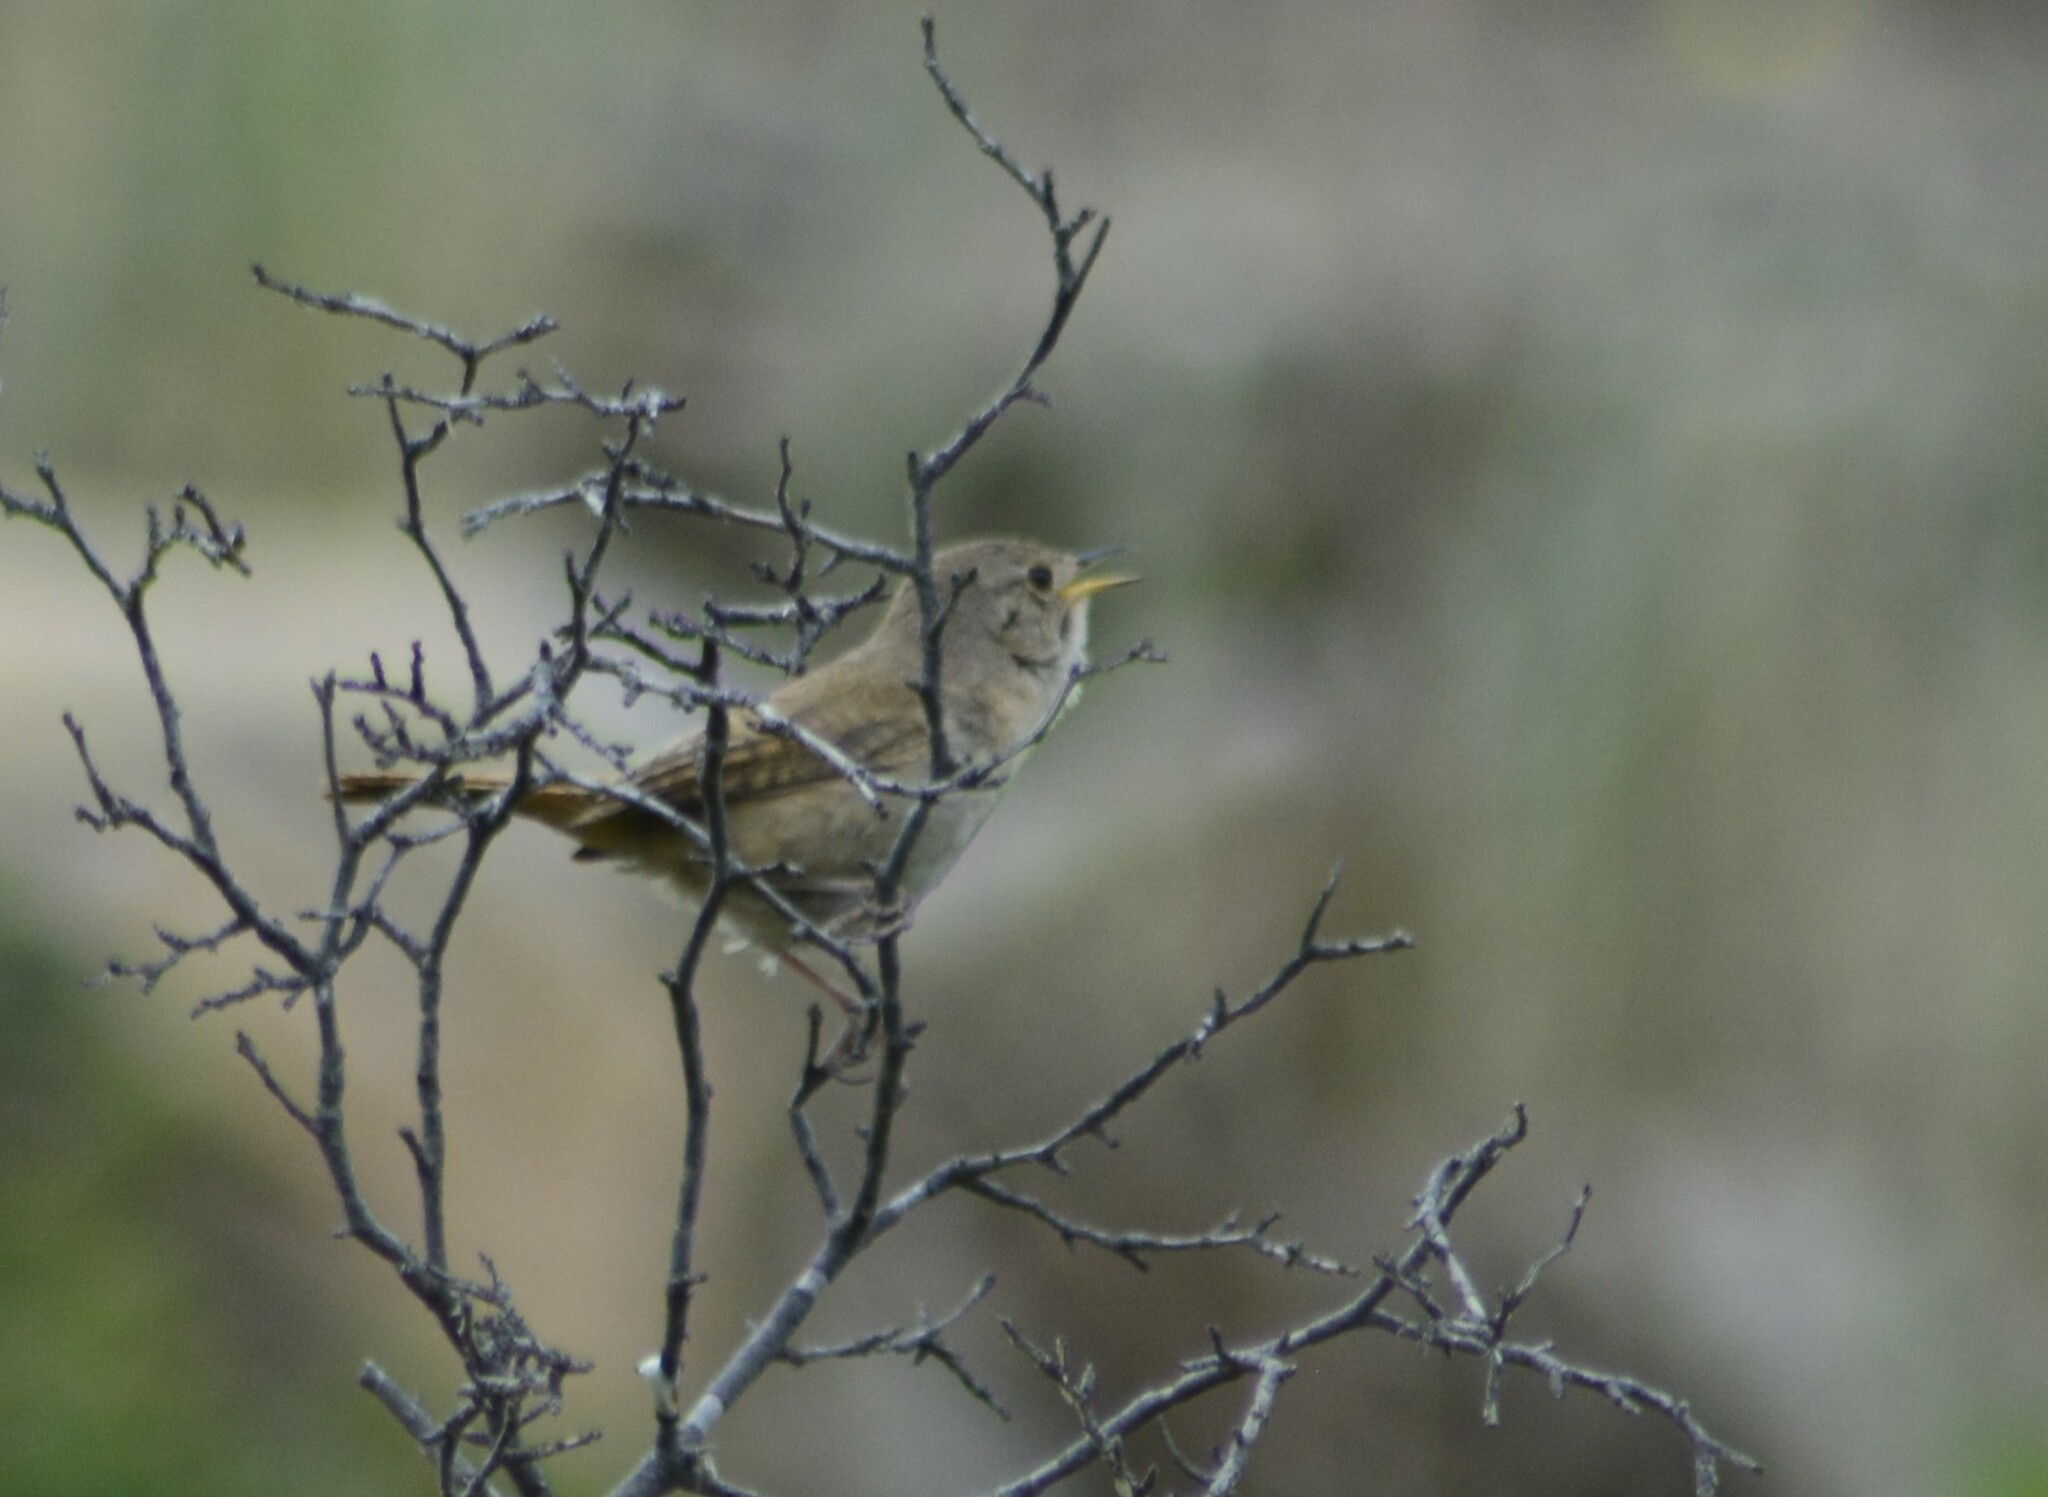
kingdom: Animalia
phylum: Chordata
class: Aves
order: Passeriformes
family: Troglodytidae
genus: Troglodytes
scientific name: Troglodytes aedon
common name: House wren
